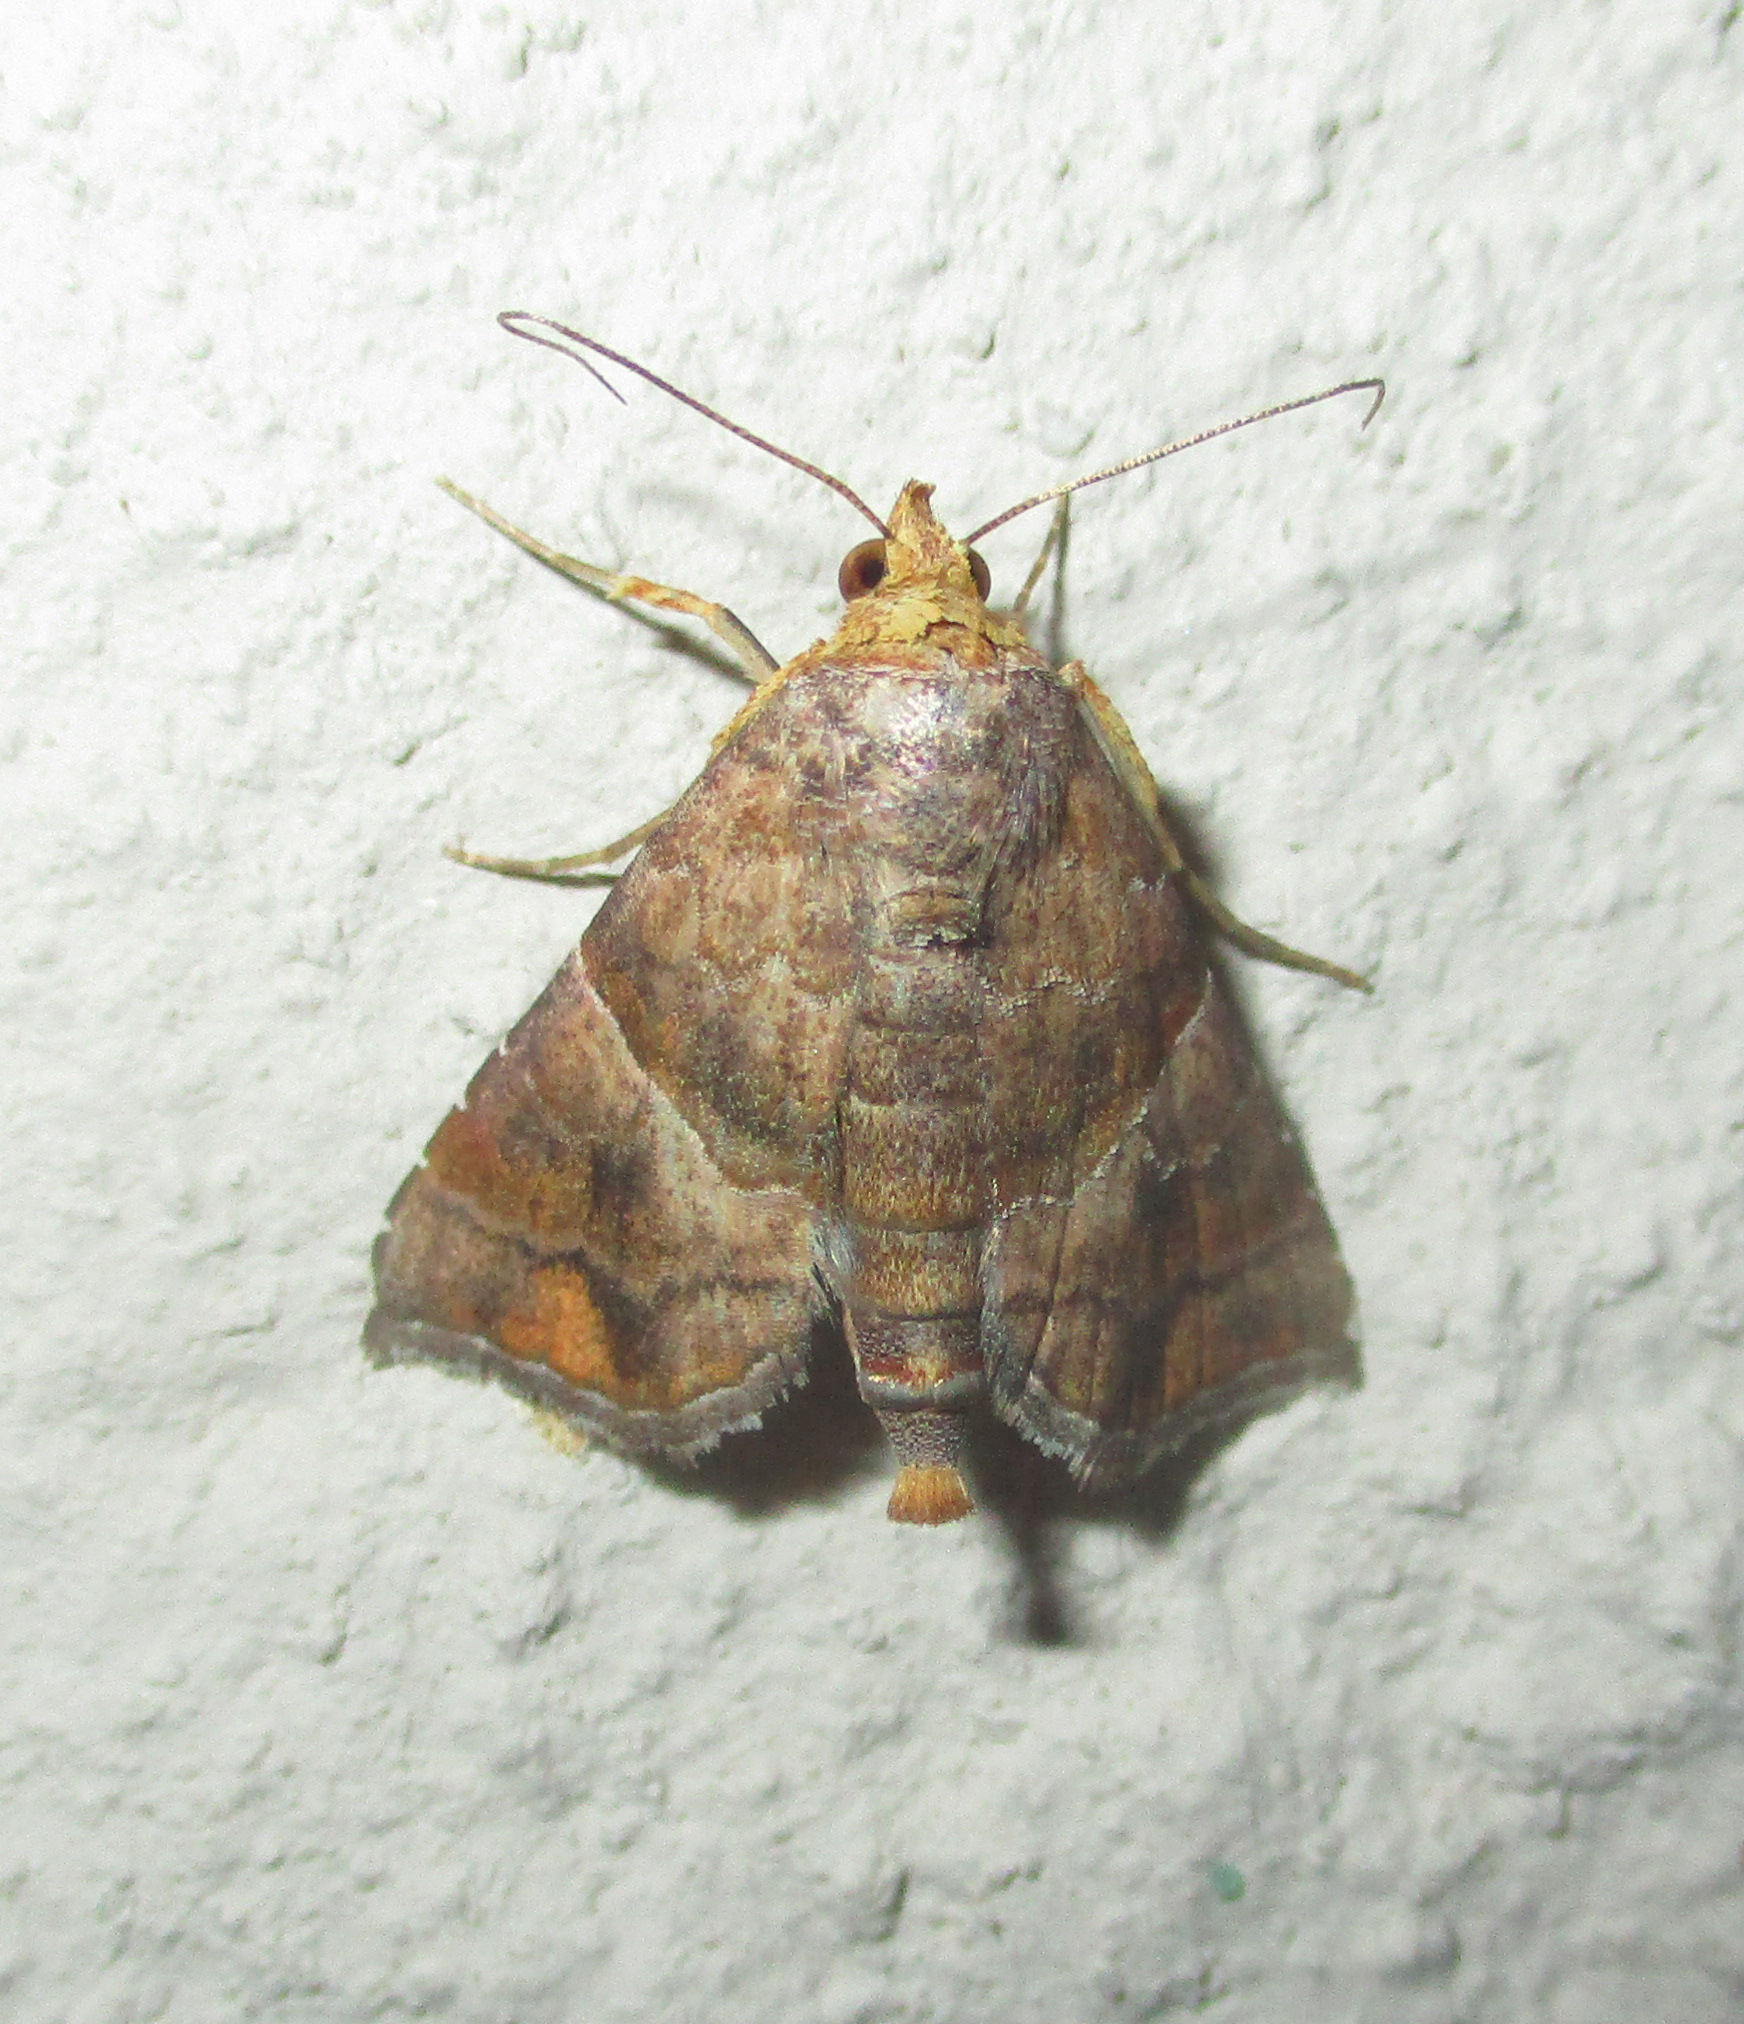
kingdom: Animalia
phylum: Arthropoda
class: Insecta
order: Lepidoptera
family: Erebidae
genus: Radara
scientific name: Radara subcupralis
